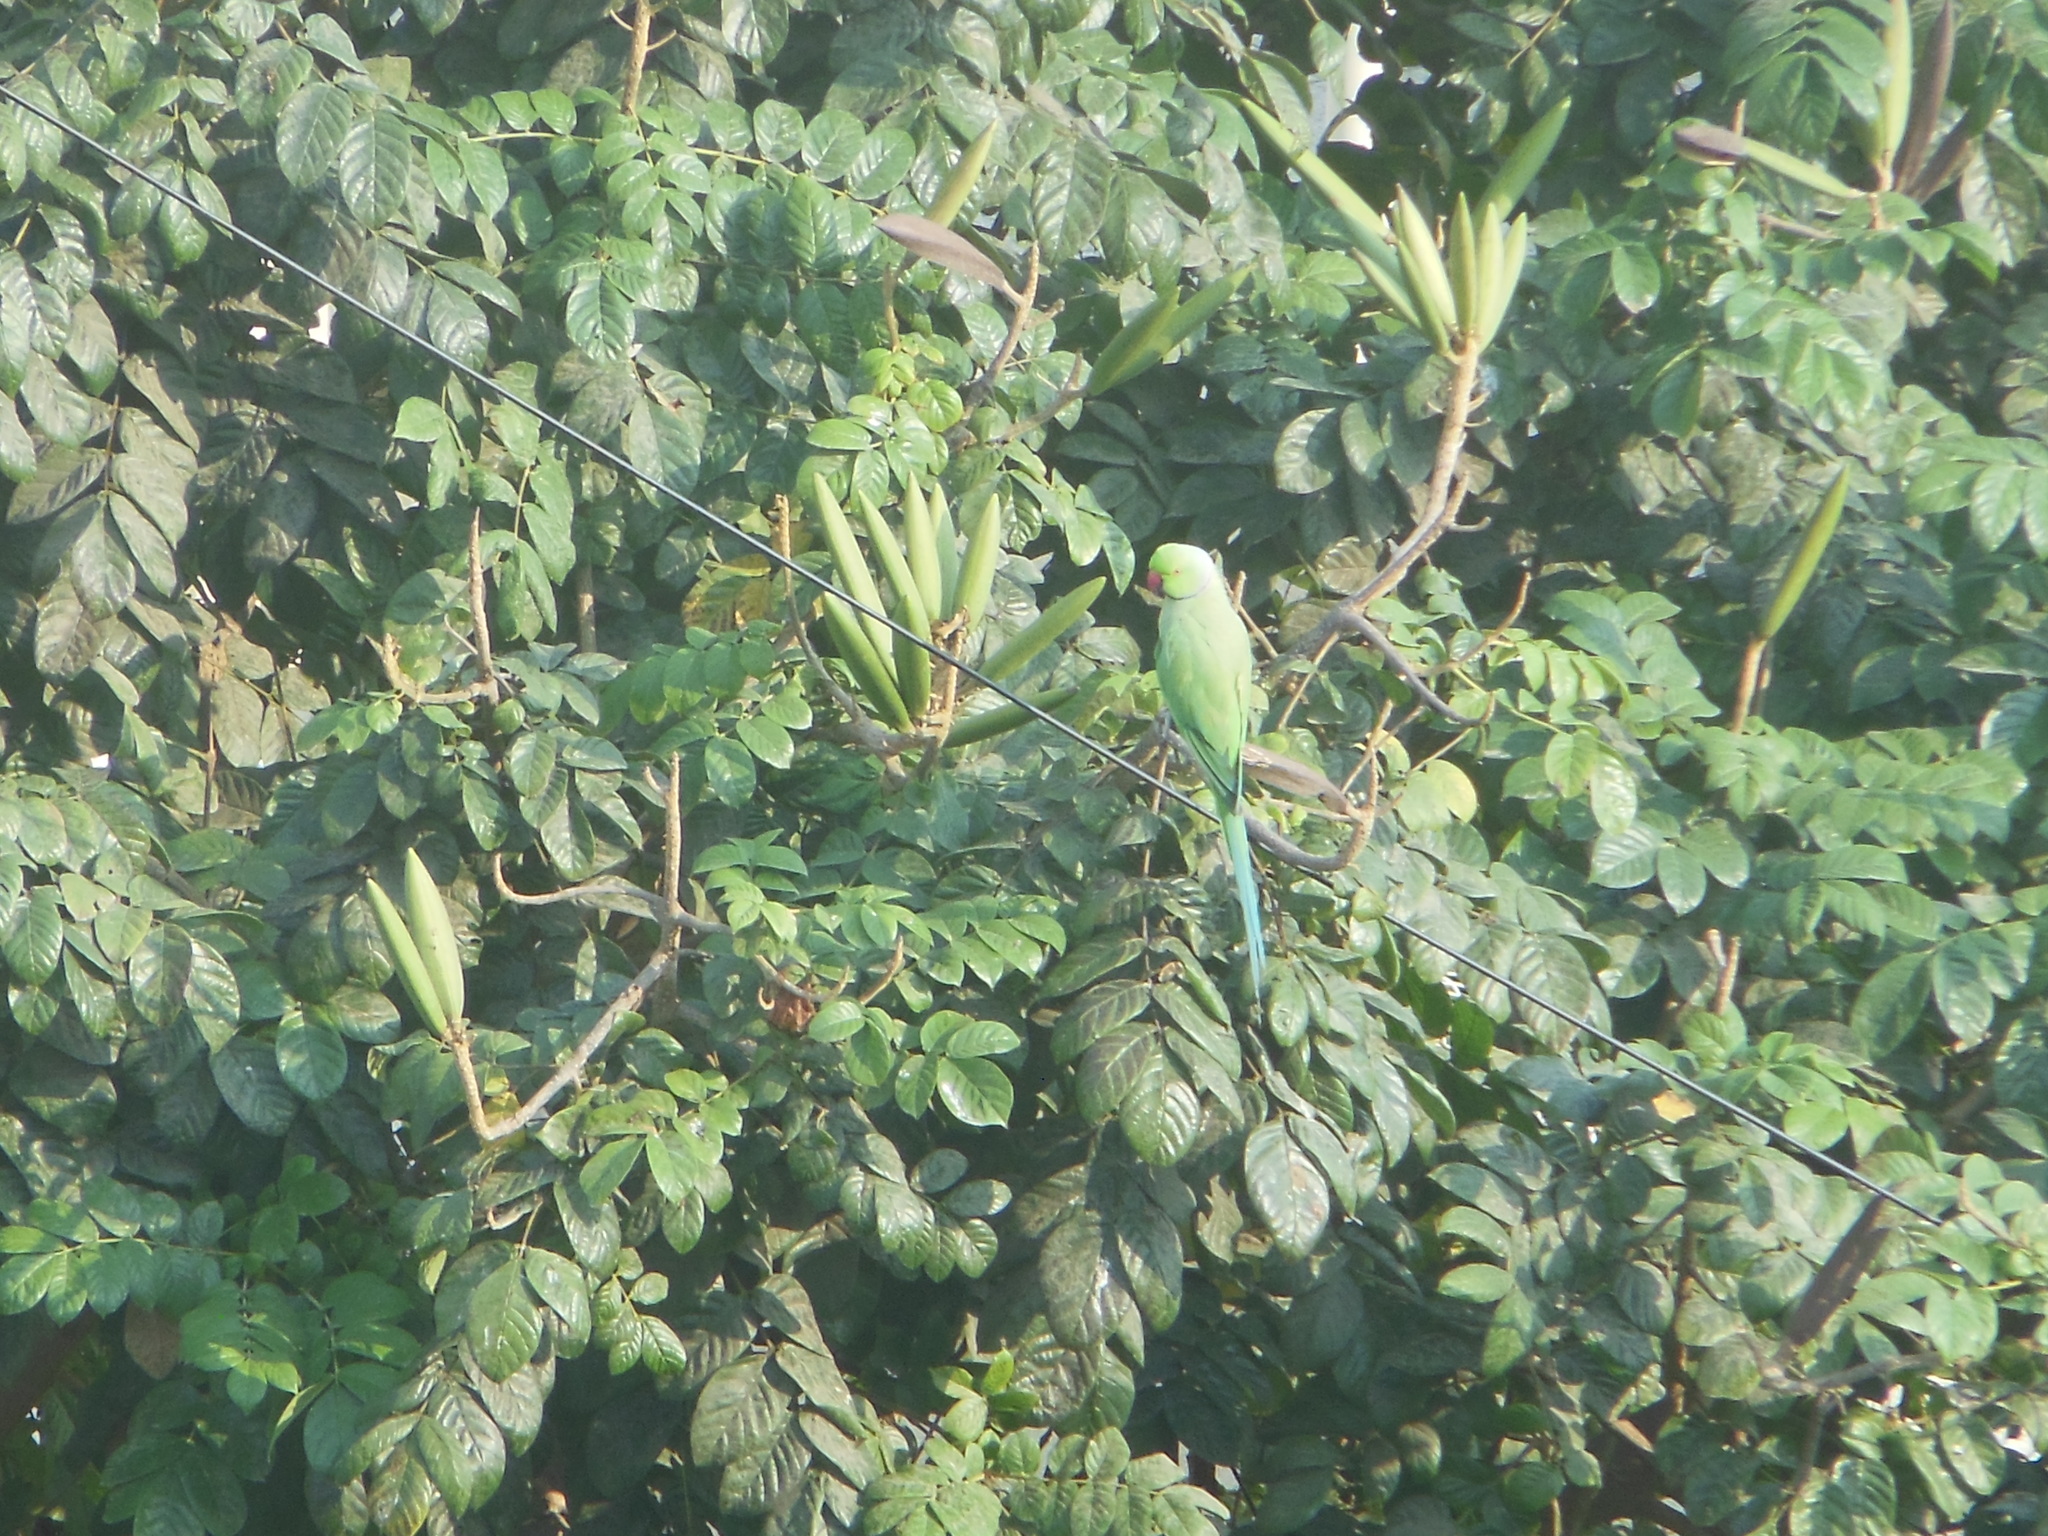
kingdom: Animalia
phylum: Chordata
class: Aves
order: Psittaciformes
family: Psittacidae
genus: Psittacula
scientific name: Psittacula krameri
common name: Rose-ringed parakeet
